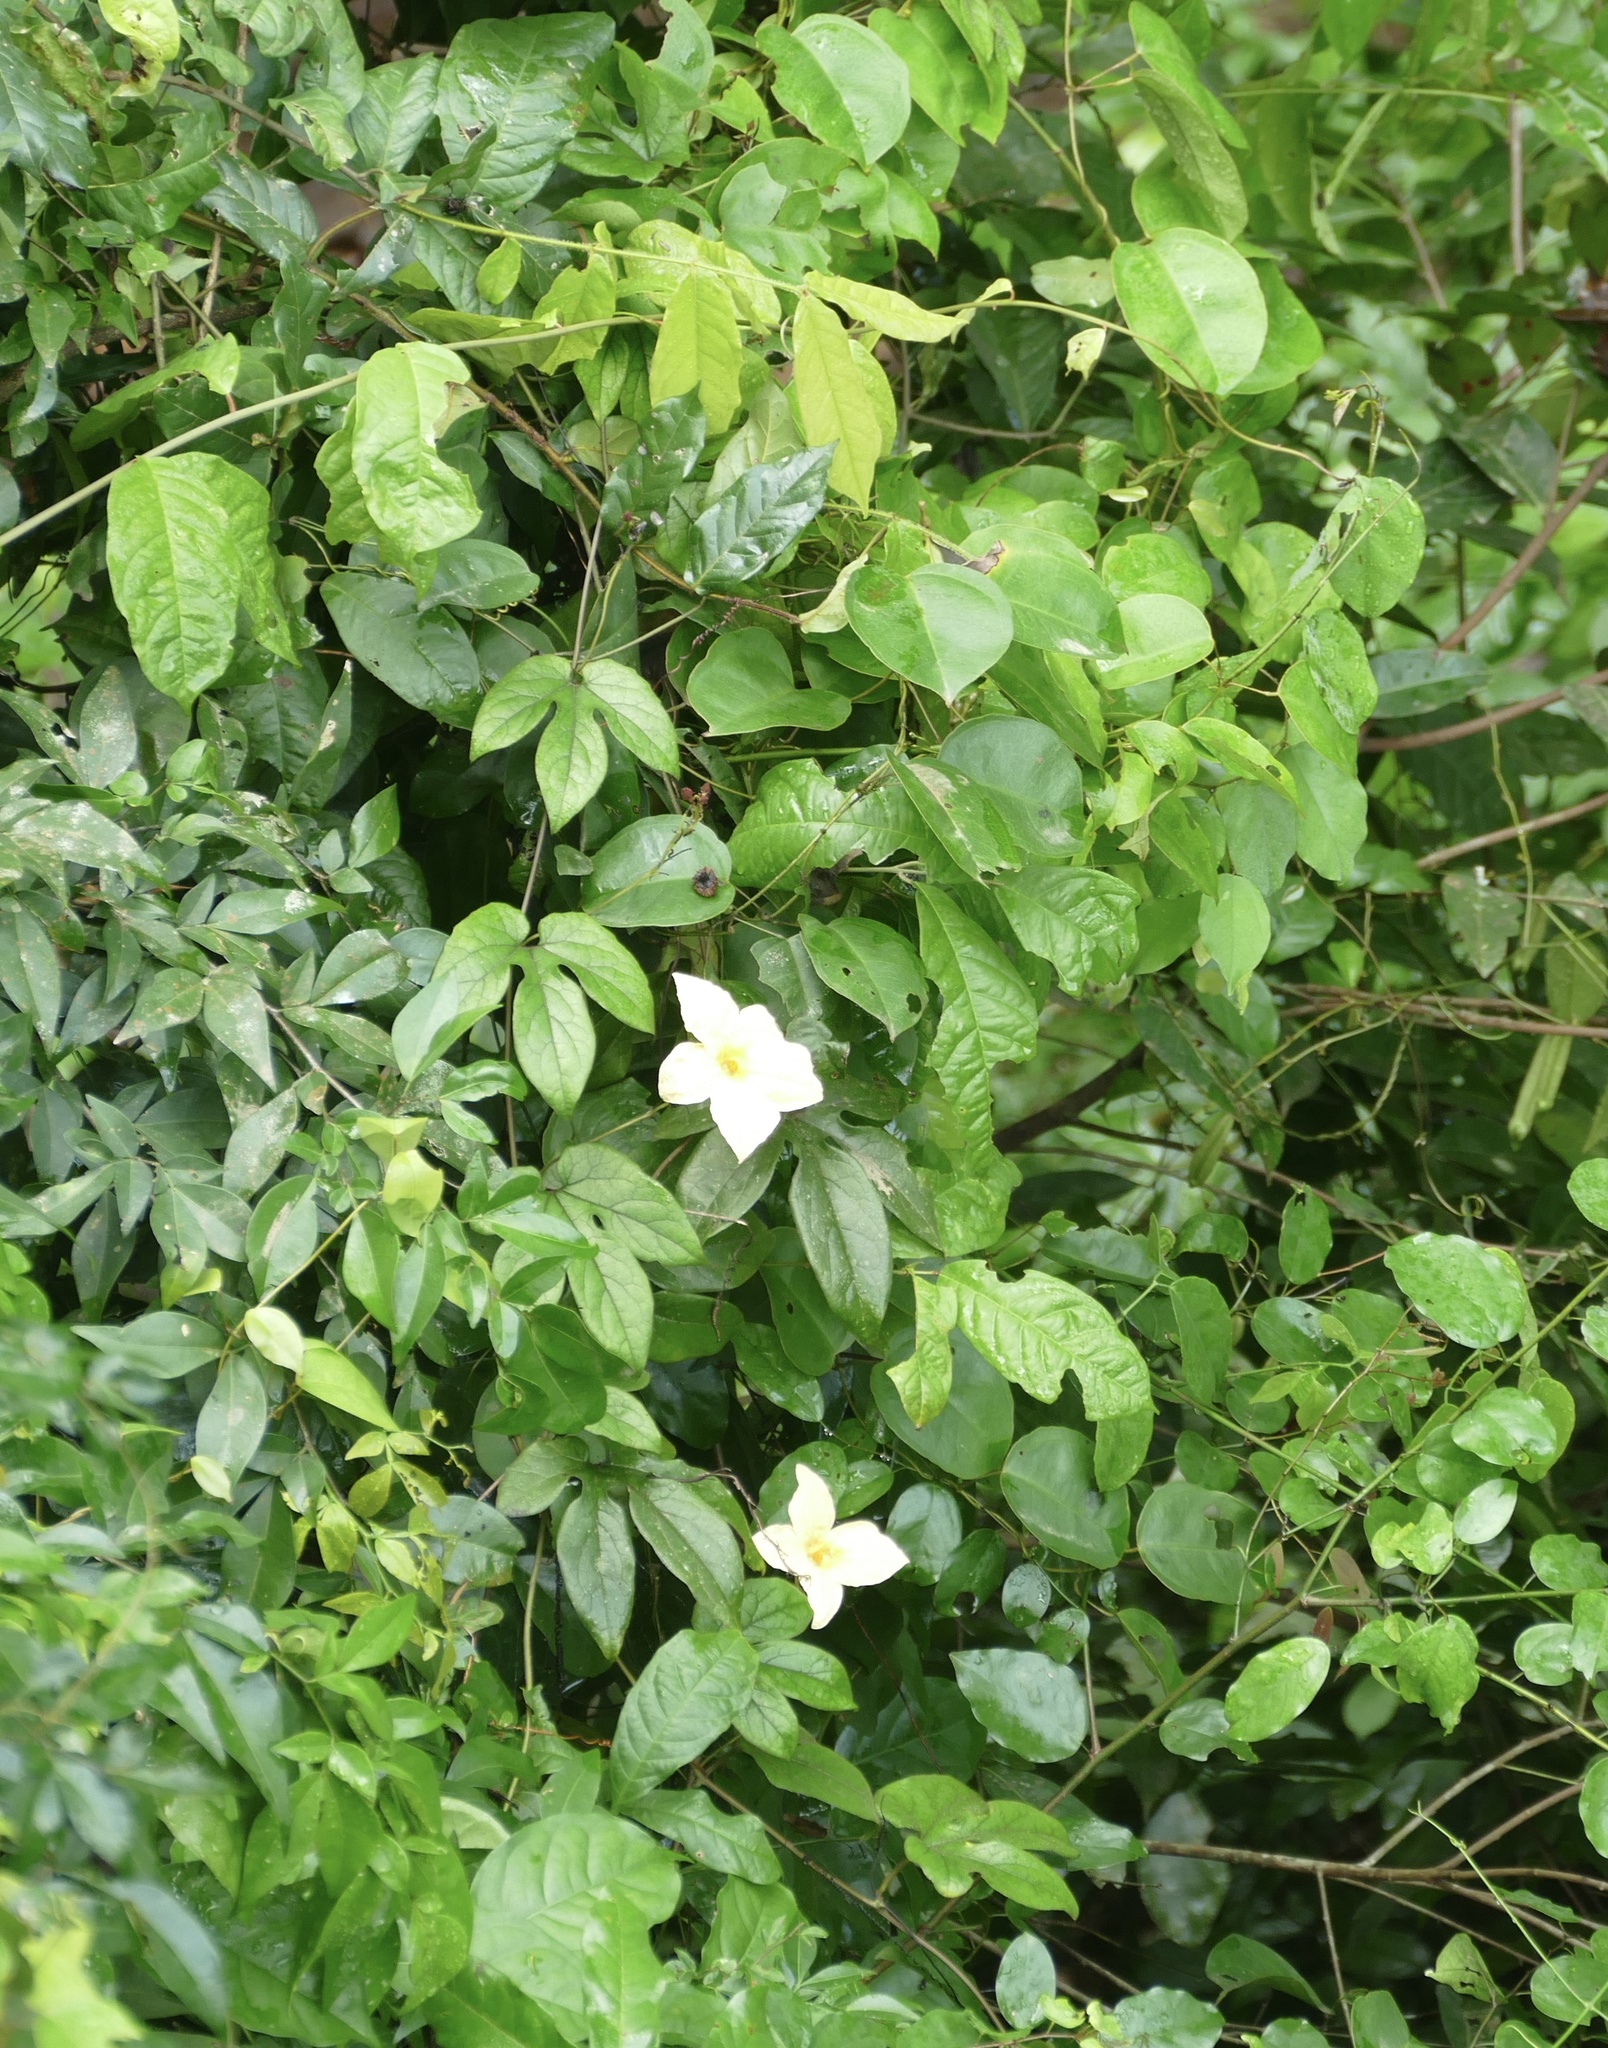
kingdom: Plantae
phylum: Tracheophyta
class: Magnoliopsida
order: Cucurbitales
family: Cucurbitaceae
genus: Ruthalicia
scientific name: Ruthalicia eglandulosa
